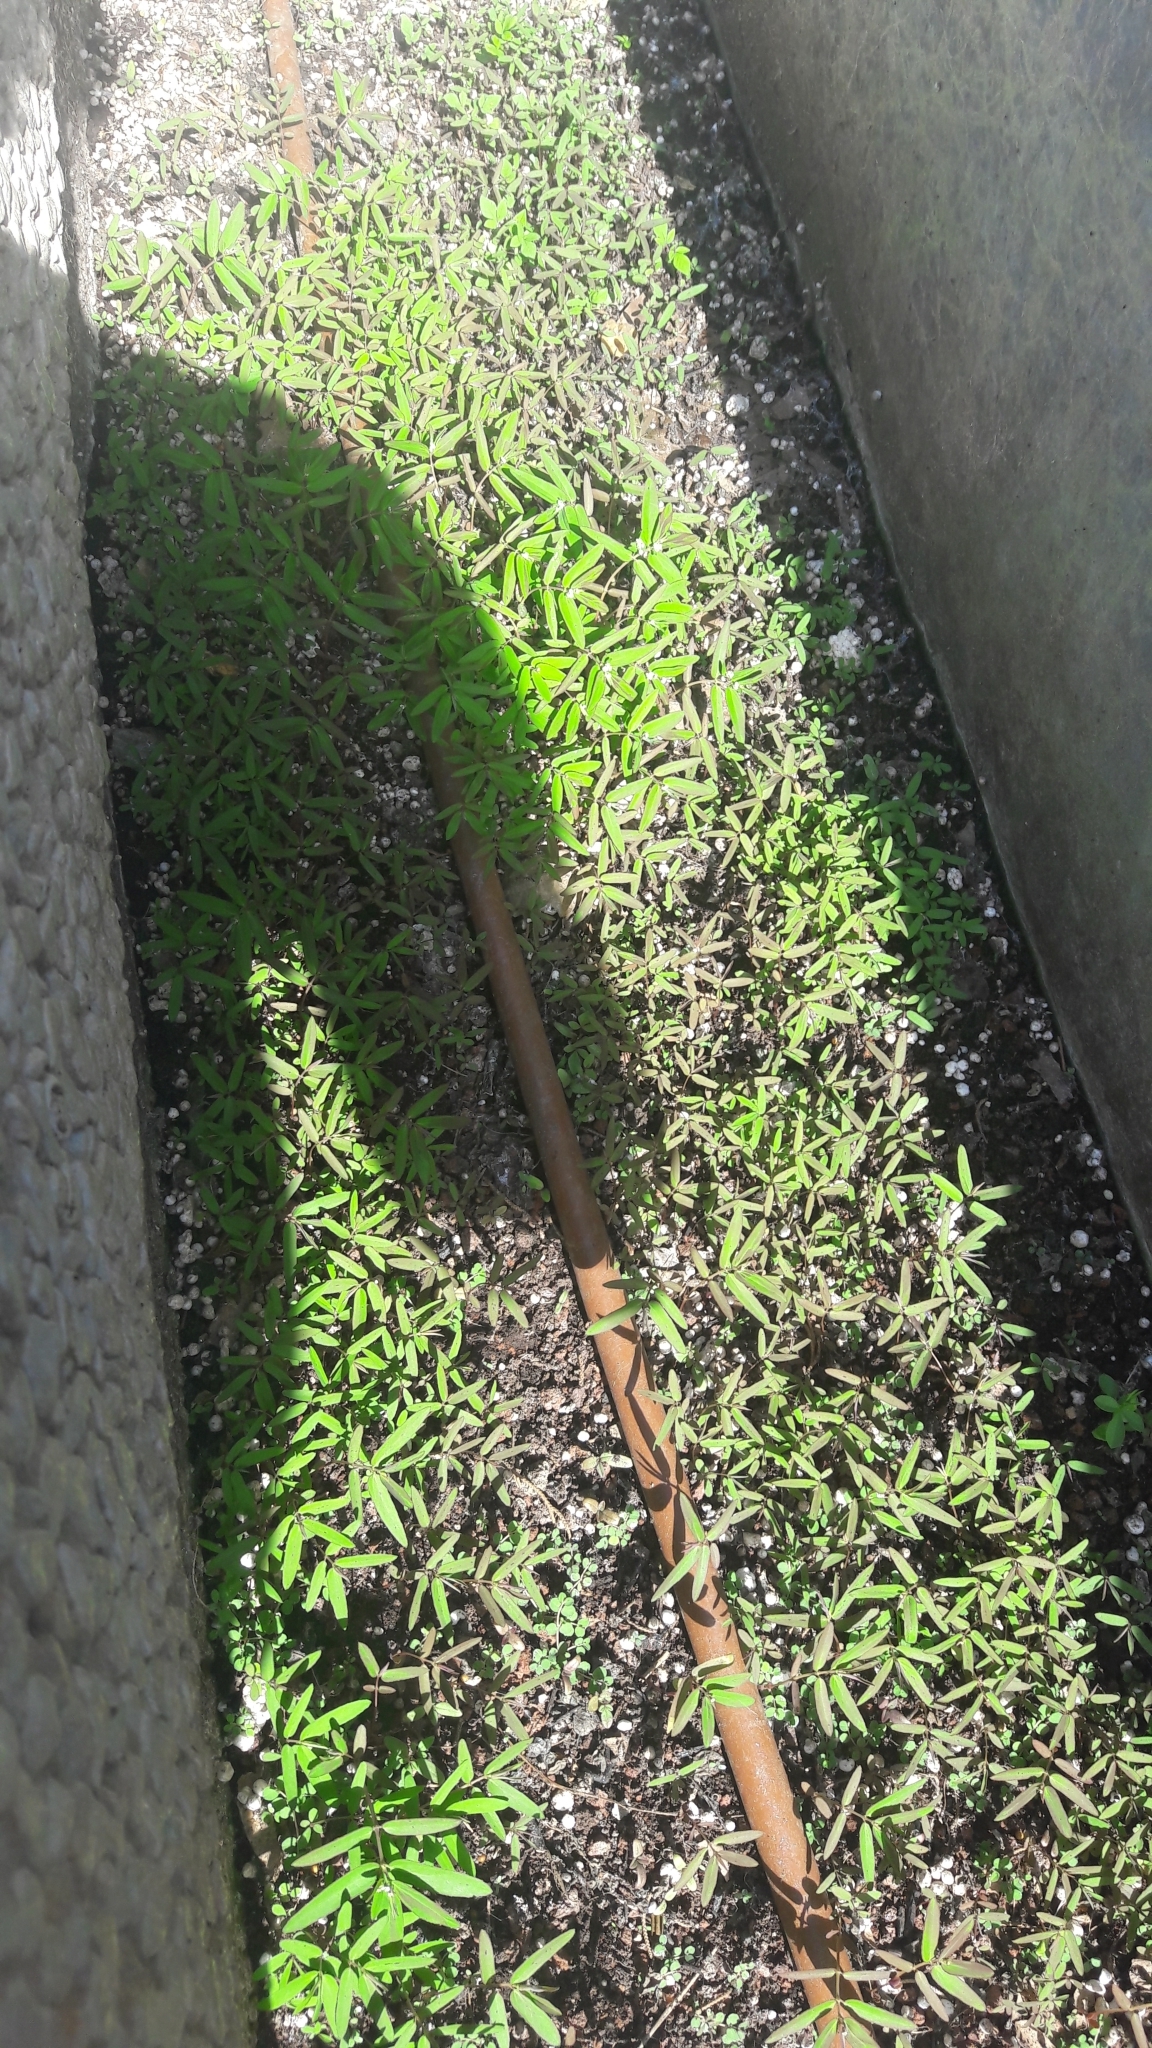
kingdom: Plantae
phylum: Tracheophyta
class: Magnoliopsida
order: Malpighiales
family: Euphorbiaceae
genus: Euphorbia
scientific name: Euphorbia hypericifolia
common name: Graceful sandmat
